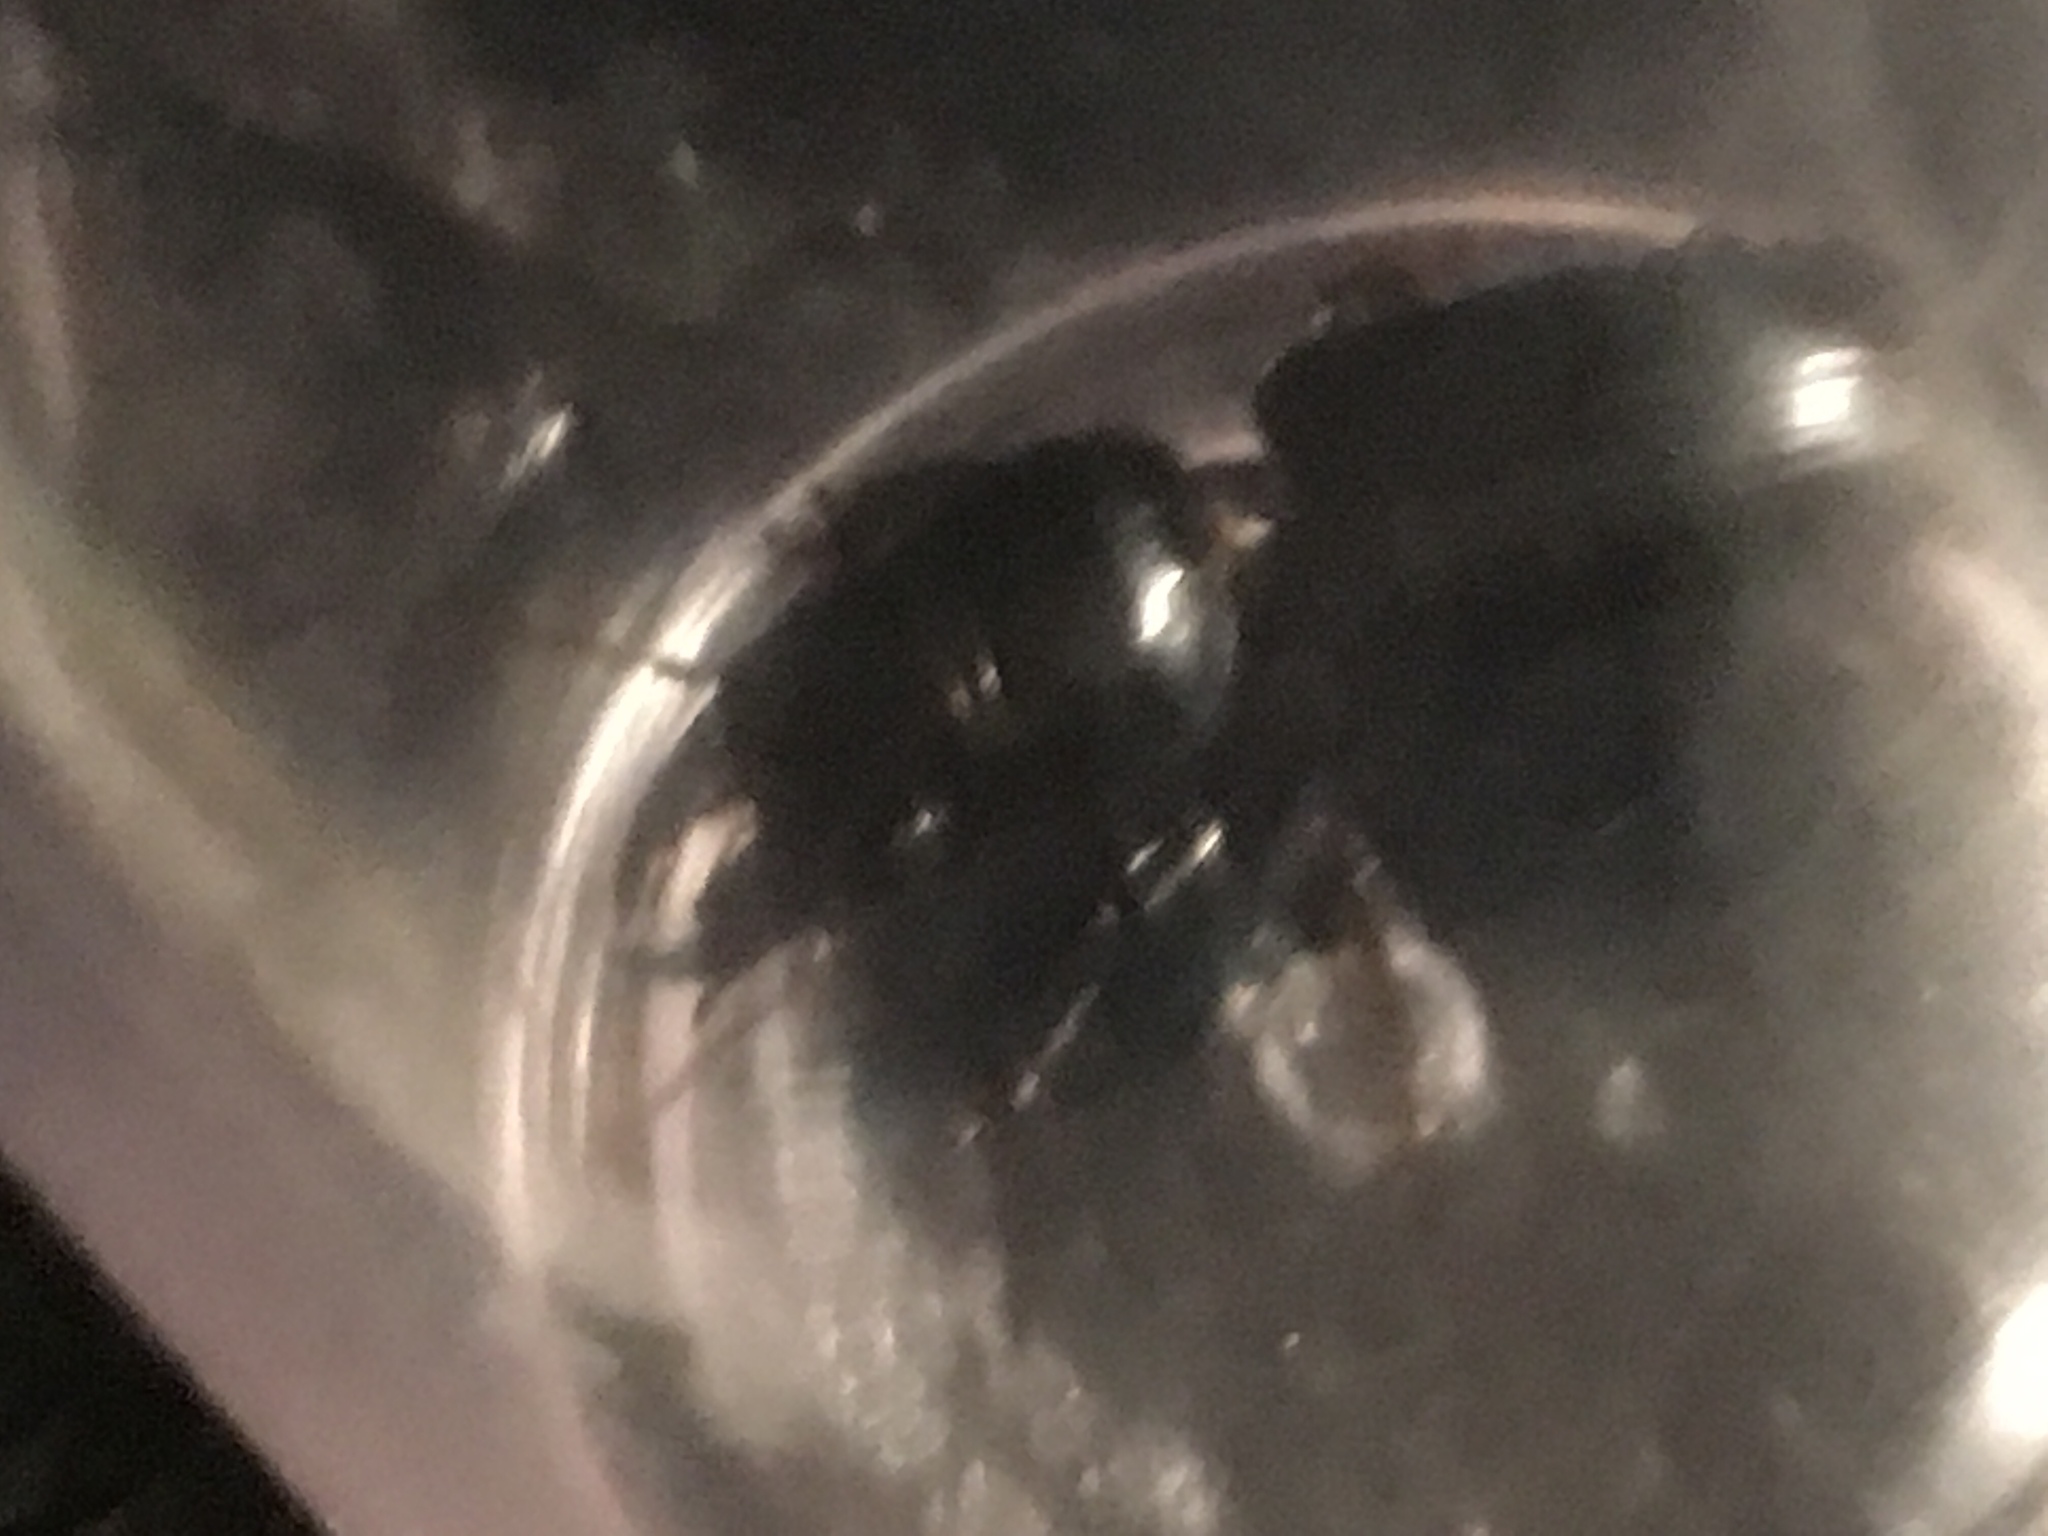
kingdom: Animalia
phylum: Arthropoda
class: Insecta
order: Coleoptera
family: Carabidae
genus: Scarites
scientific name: Scarites subterraneus
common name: Big-headed ground beetle
